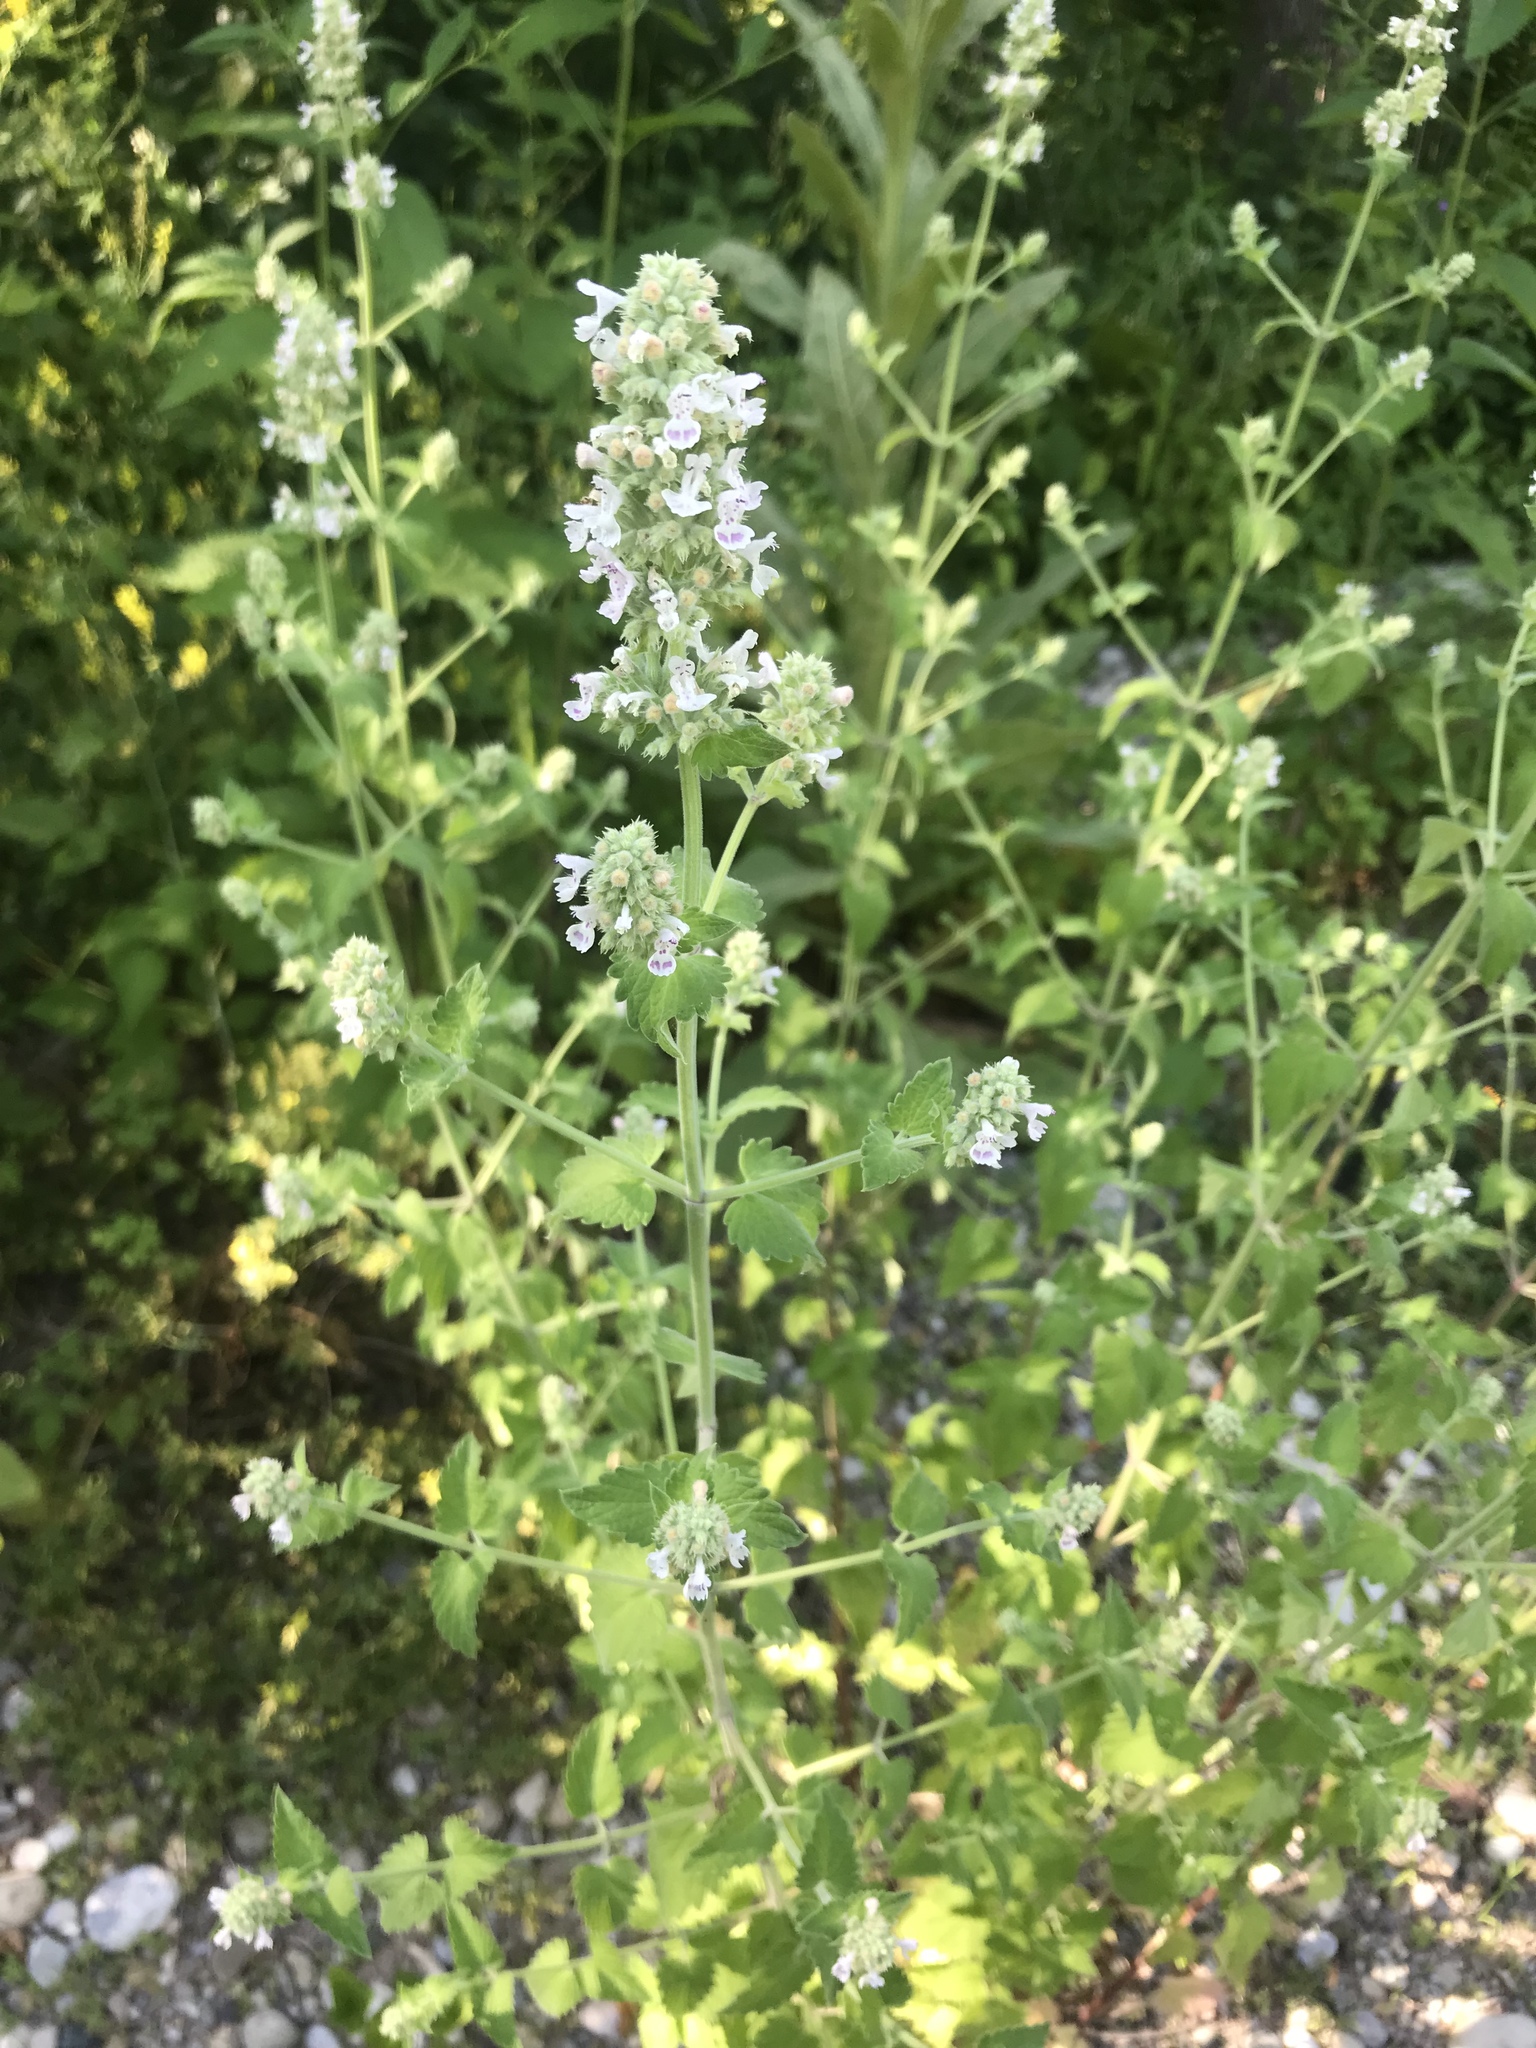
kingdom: Plantae
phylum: Tracheophyta
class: Magnoliopsida
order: Lamiales
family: Lamiaceae
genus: Nepeta
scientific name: Nepeta cataria
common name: Catnip
